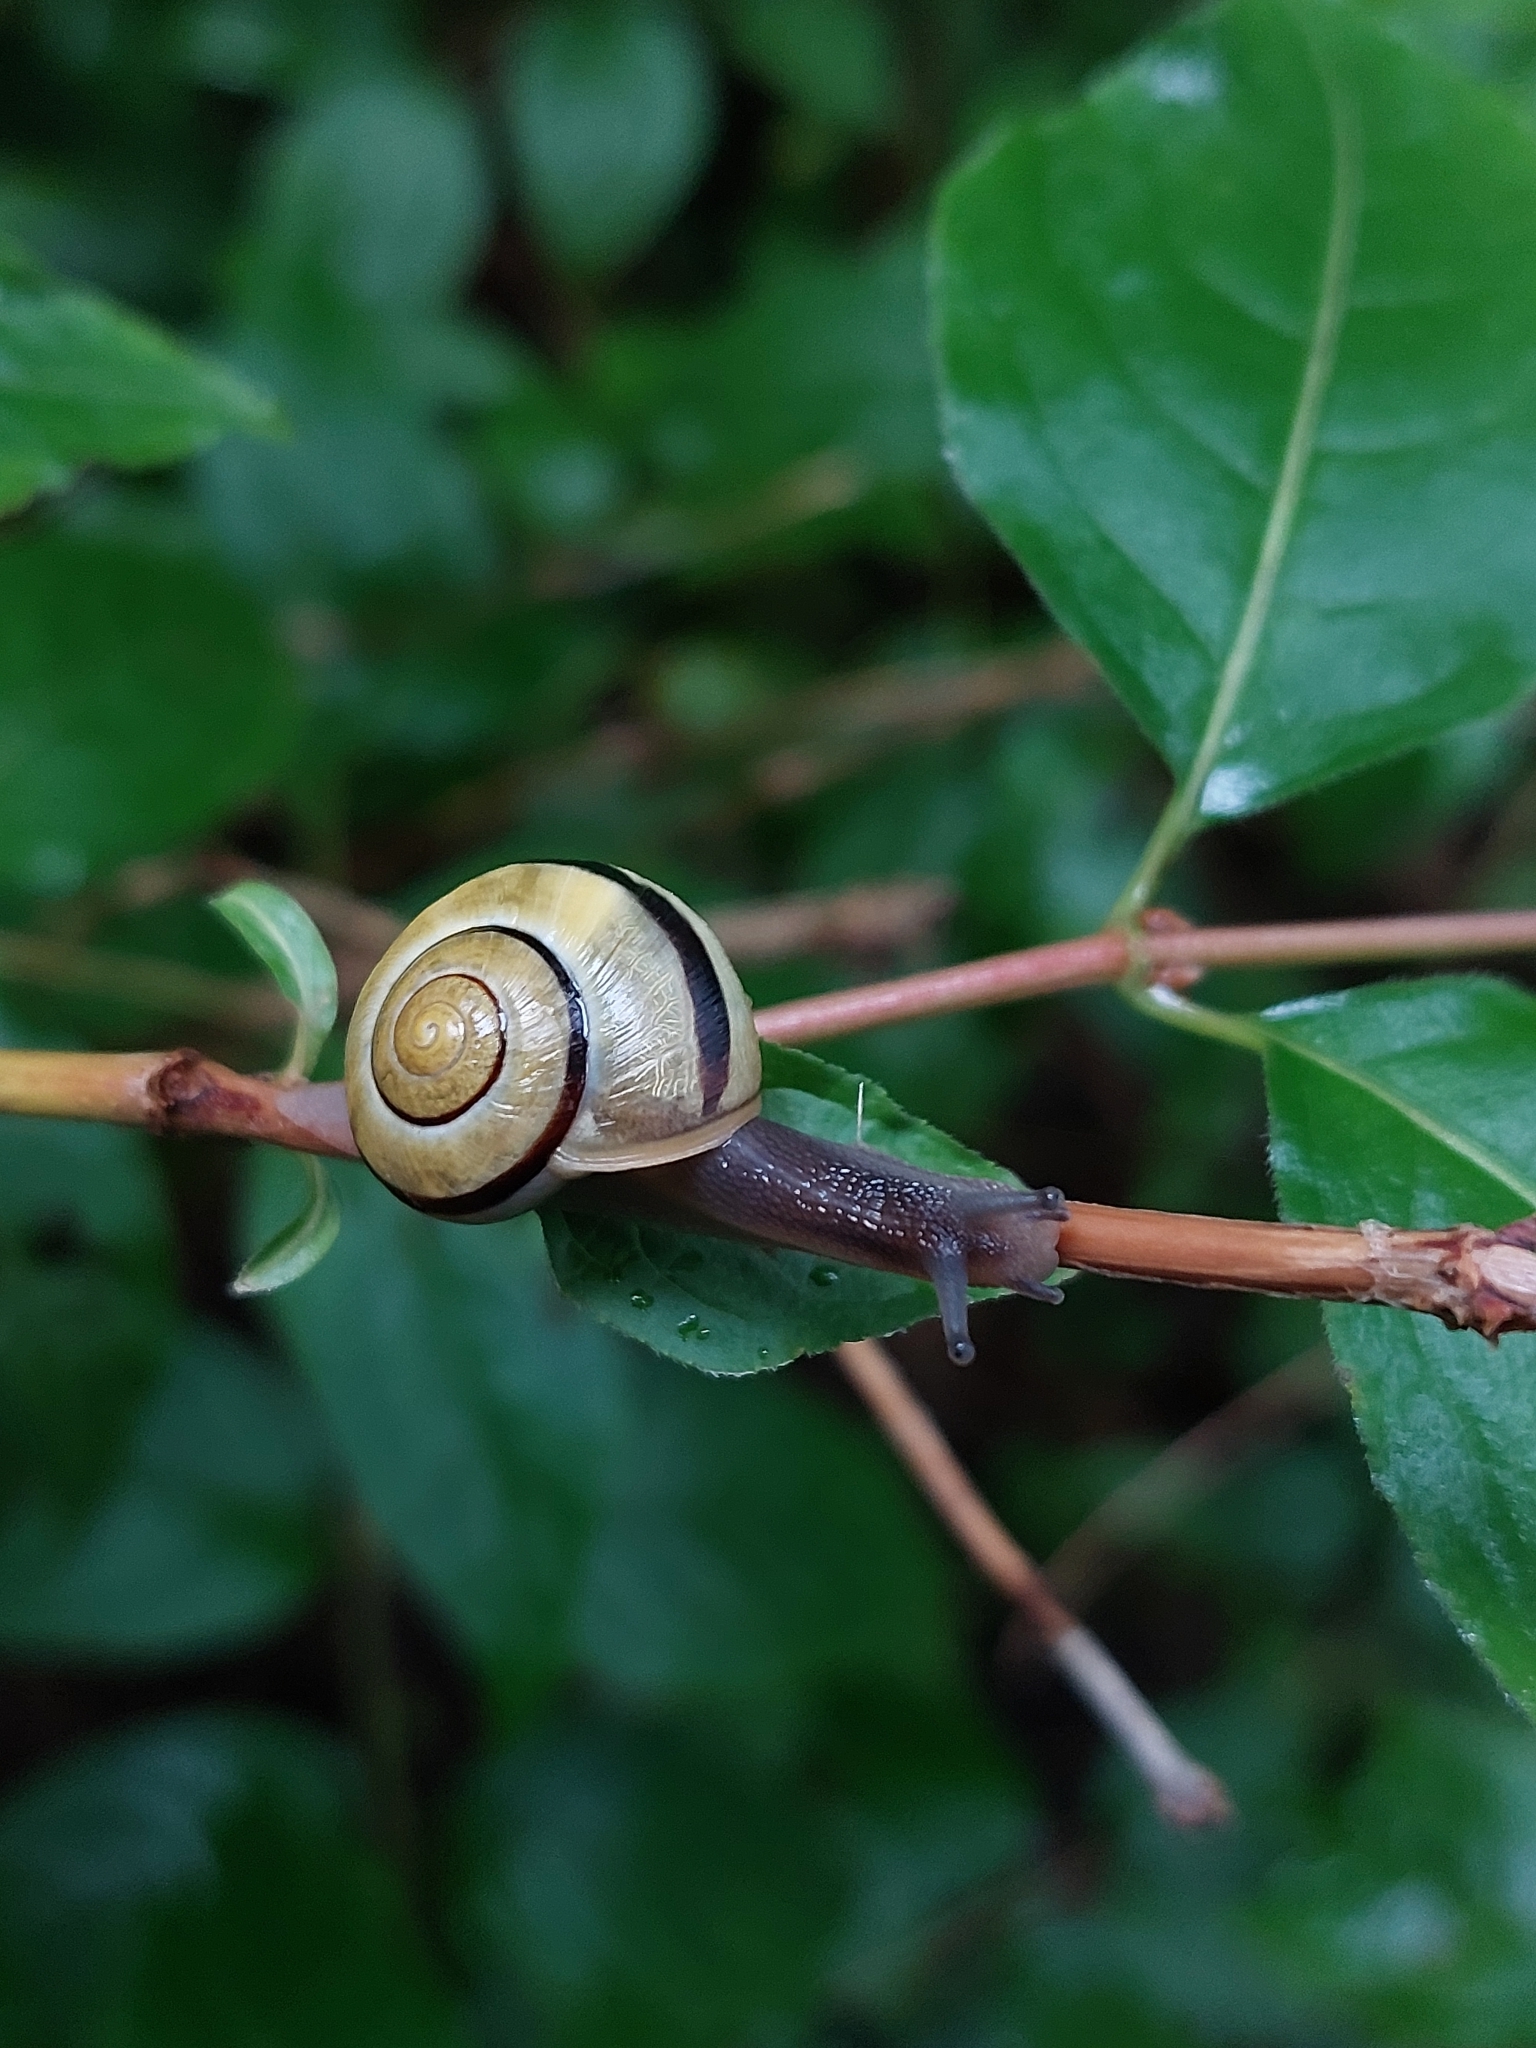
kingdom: Animalia
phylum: Mollusca
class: Gastropoda
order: Stylommatophora
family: Helicidae
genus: Cepaea
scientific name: Cepaea nemoralis
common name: Grovesnail
